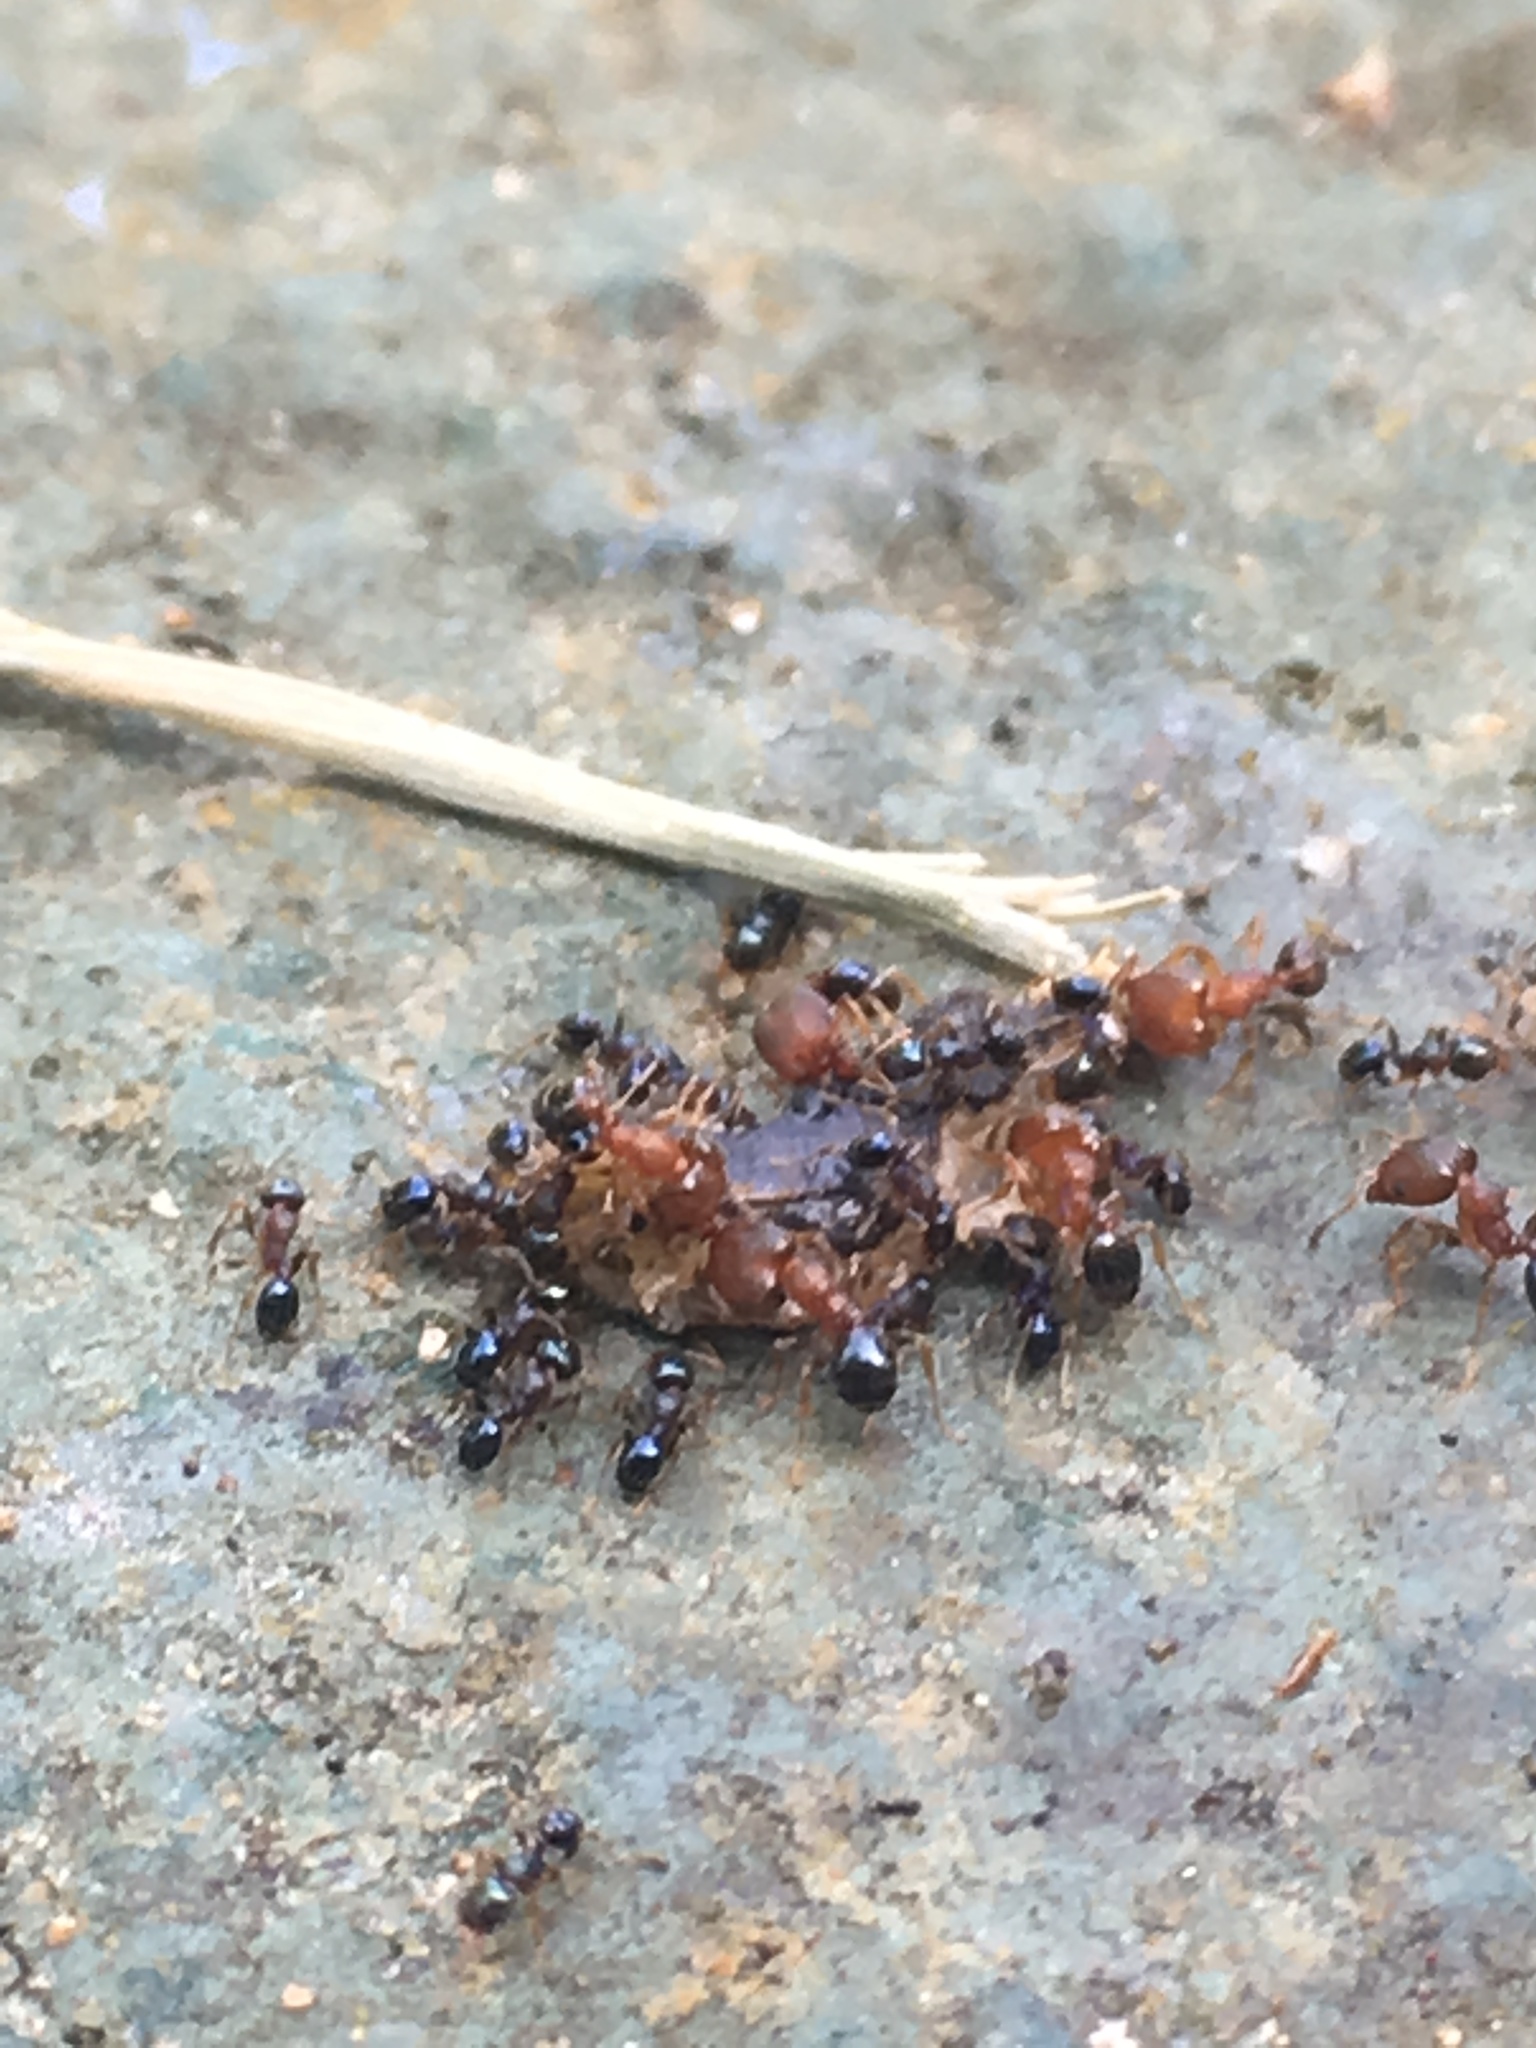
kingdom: Animalia
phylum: Arthropoda
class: Insecta
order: Hymenoptera
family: Formicidae
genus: Pheidole
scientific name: Pheidole metallescens
